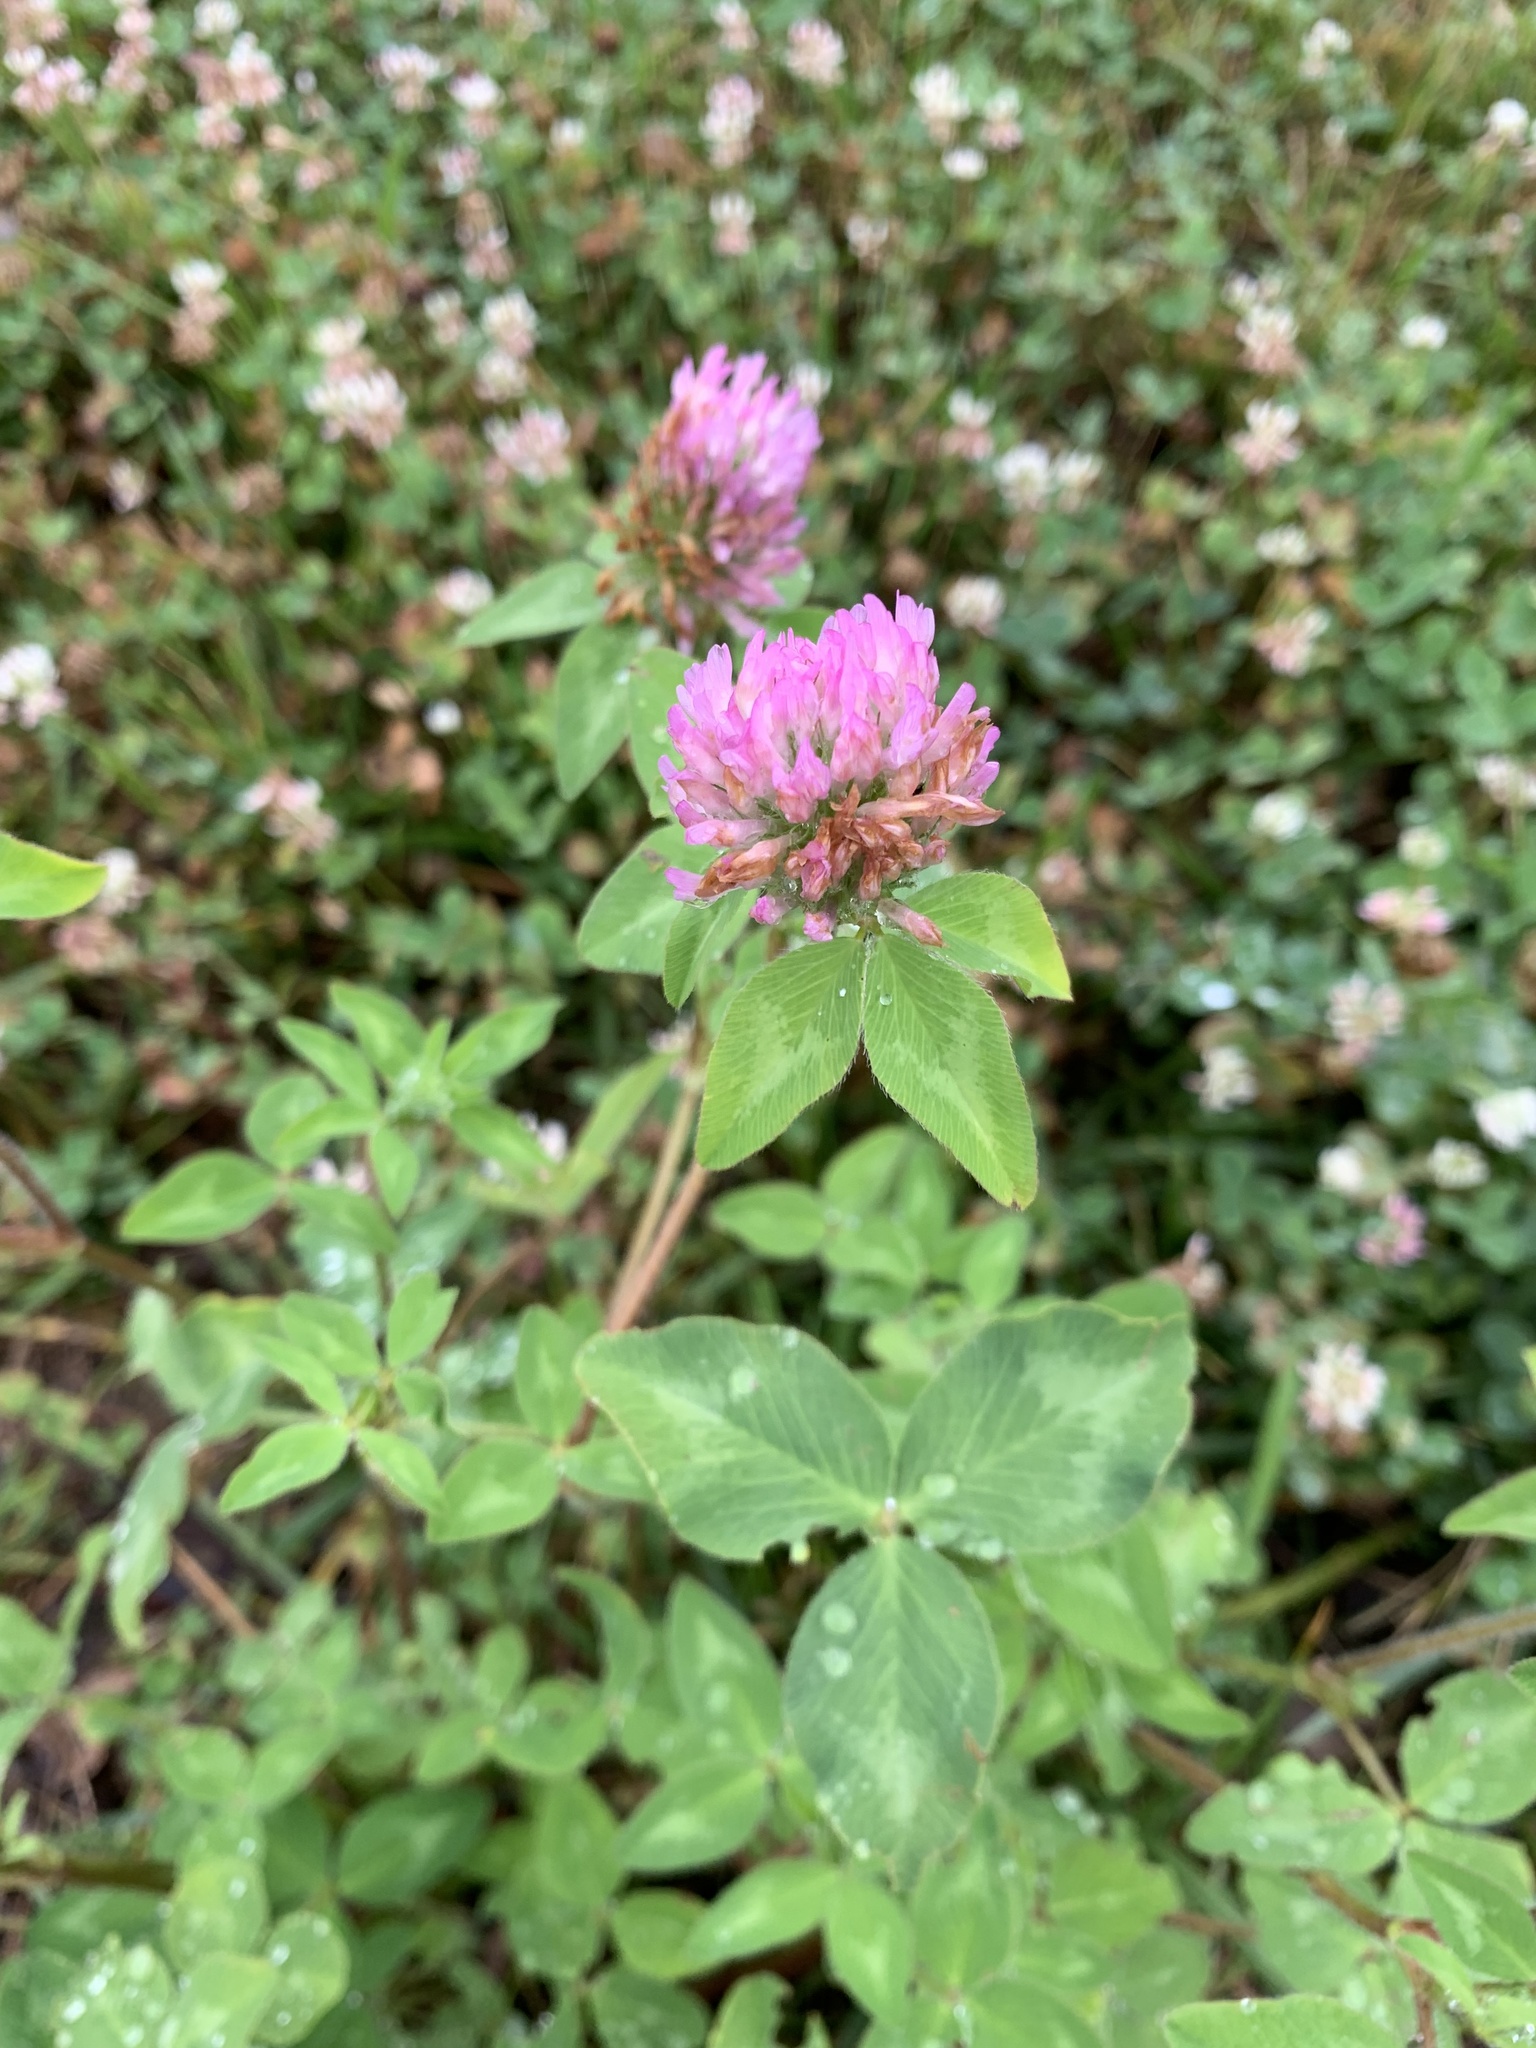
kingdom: Plantae
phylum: Tracheophyta
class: Magnoliopsida
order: Fabales
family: Fabaceae
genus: Trifolium
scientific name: Trifolium pratense
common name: Red clover
